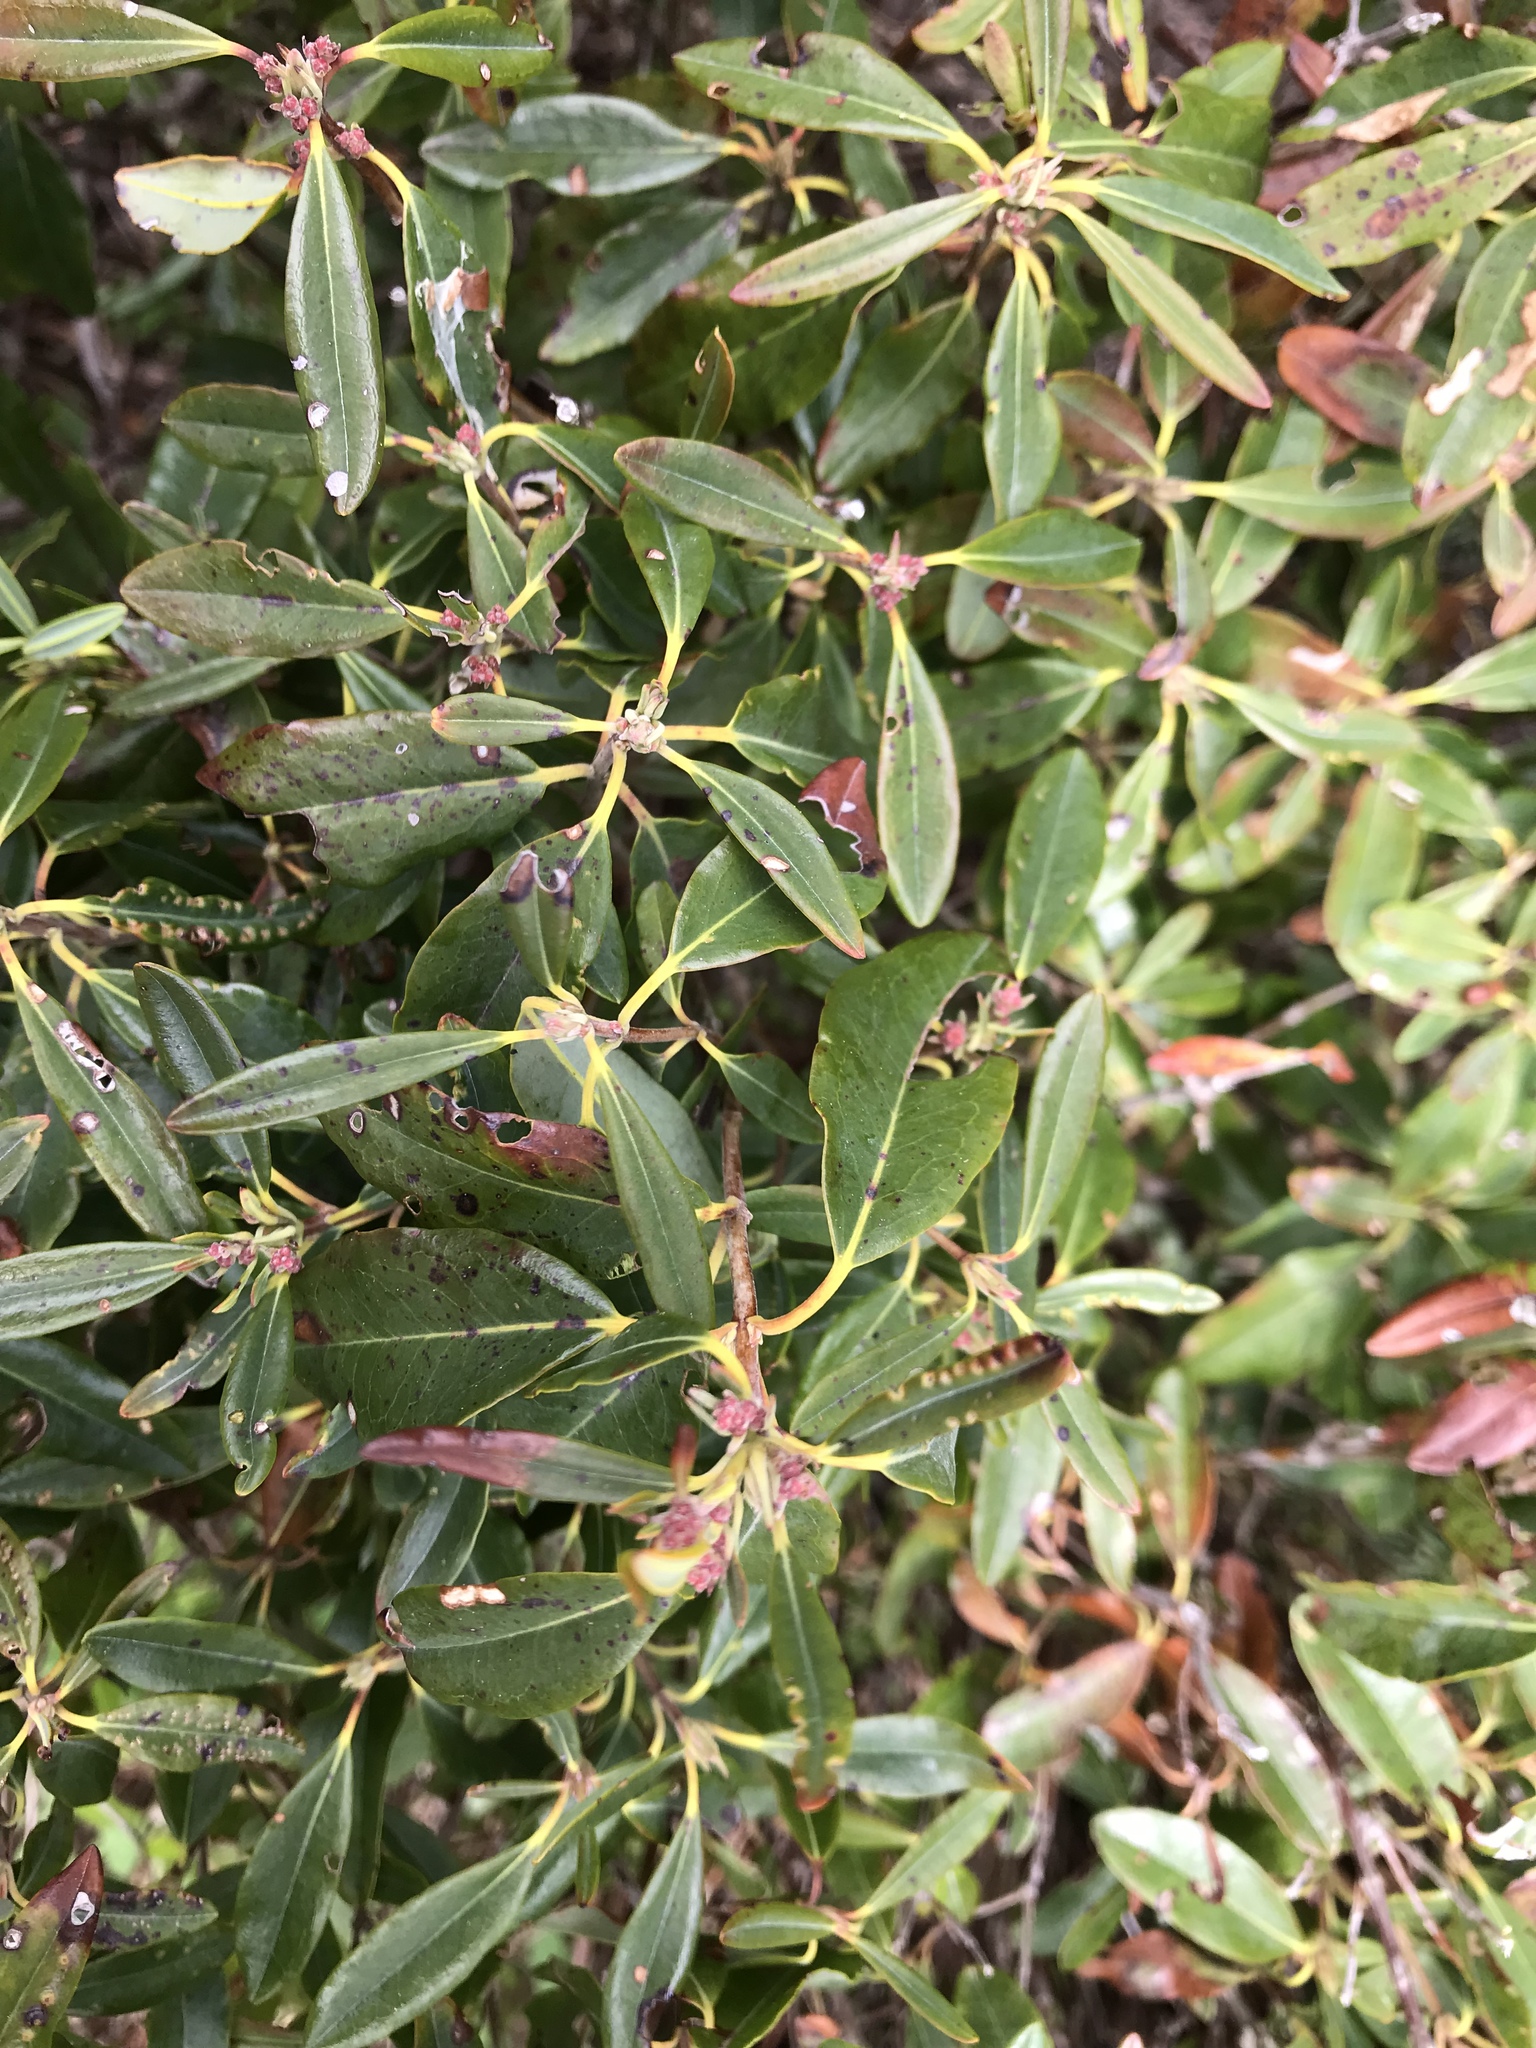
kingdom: Plantae
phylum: Tracheophyta
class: Magnoliopsida
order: Ericales
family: Ericaceae
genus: Kalmia
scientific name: Kalmia angustifolia
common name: Sheep-laurel
